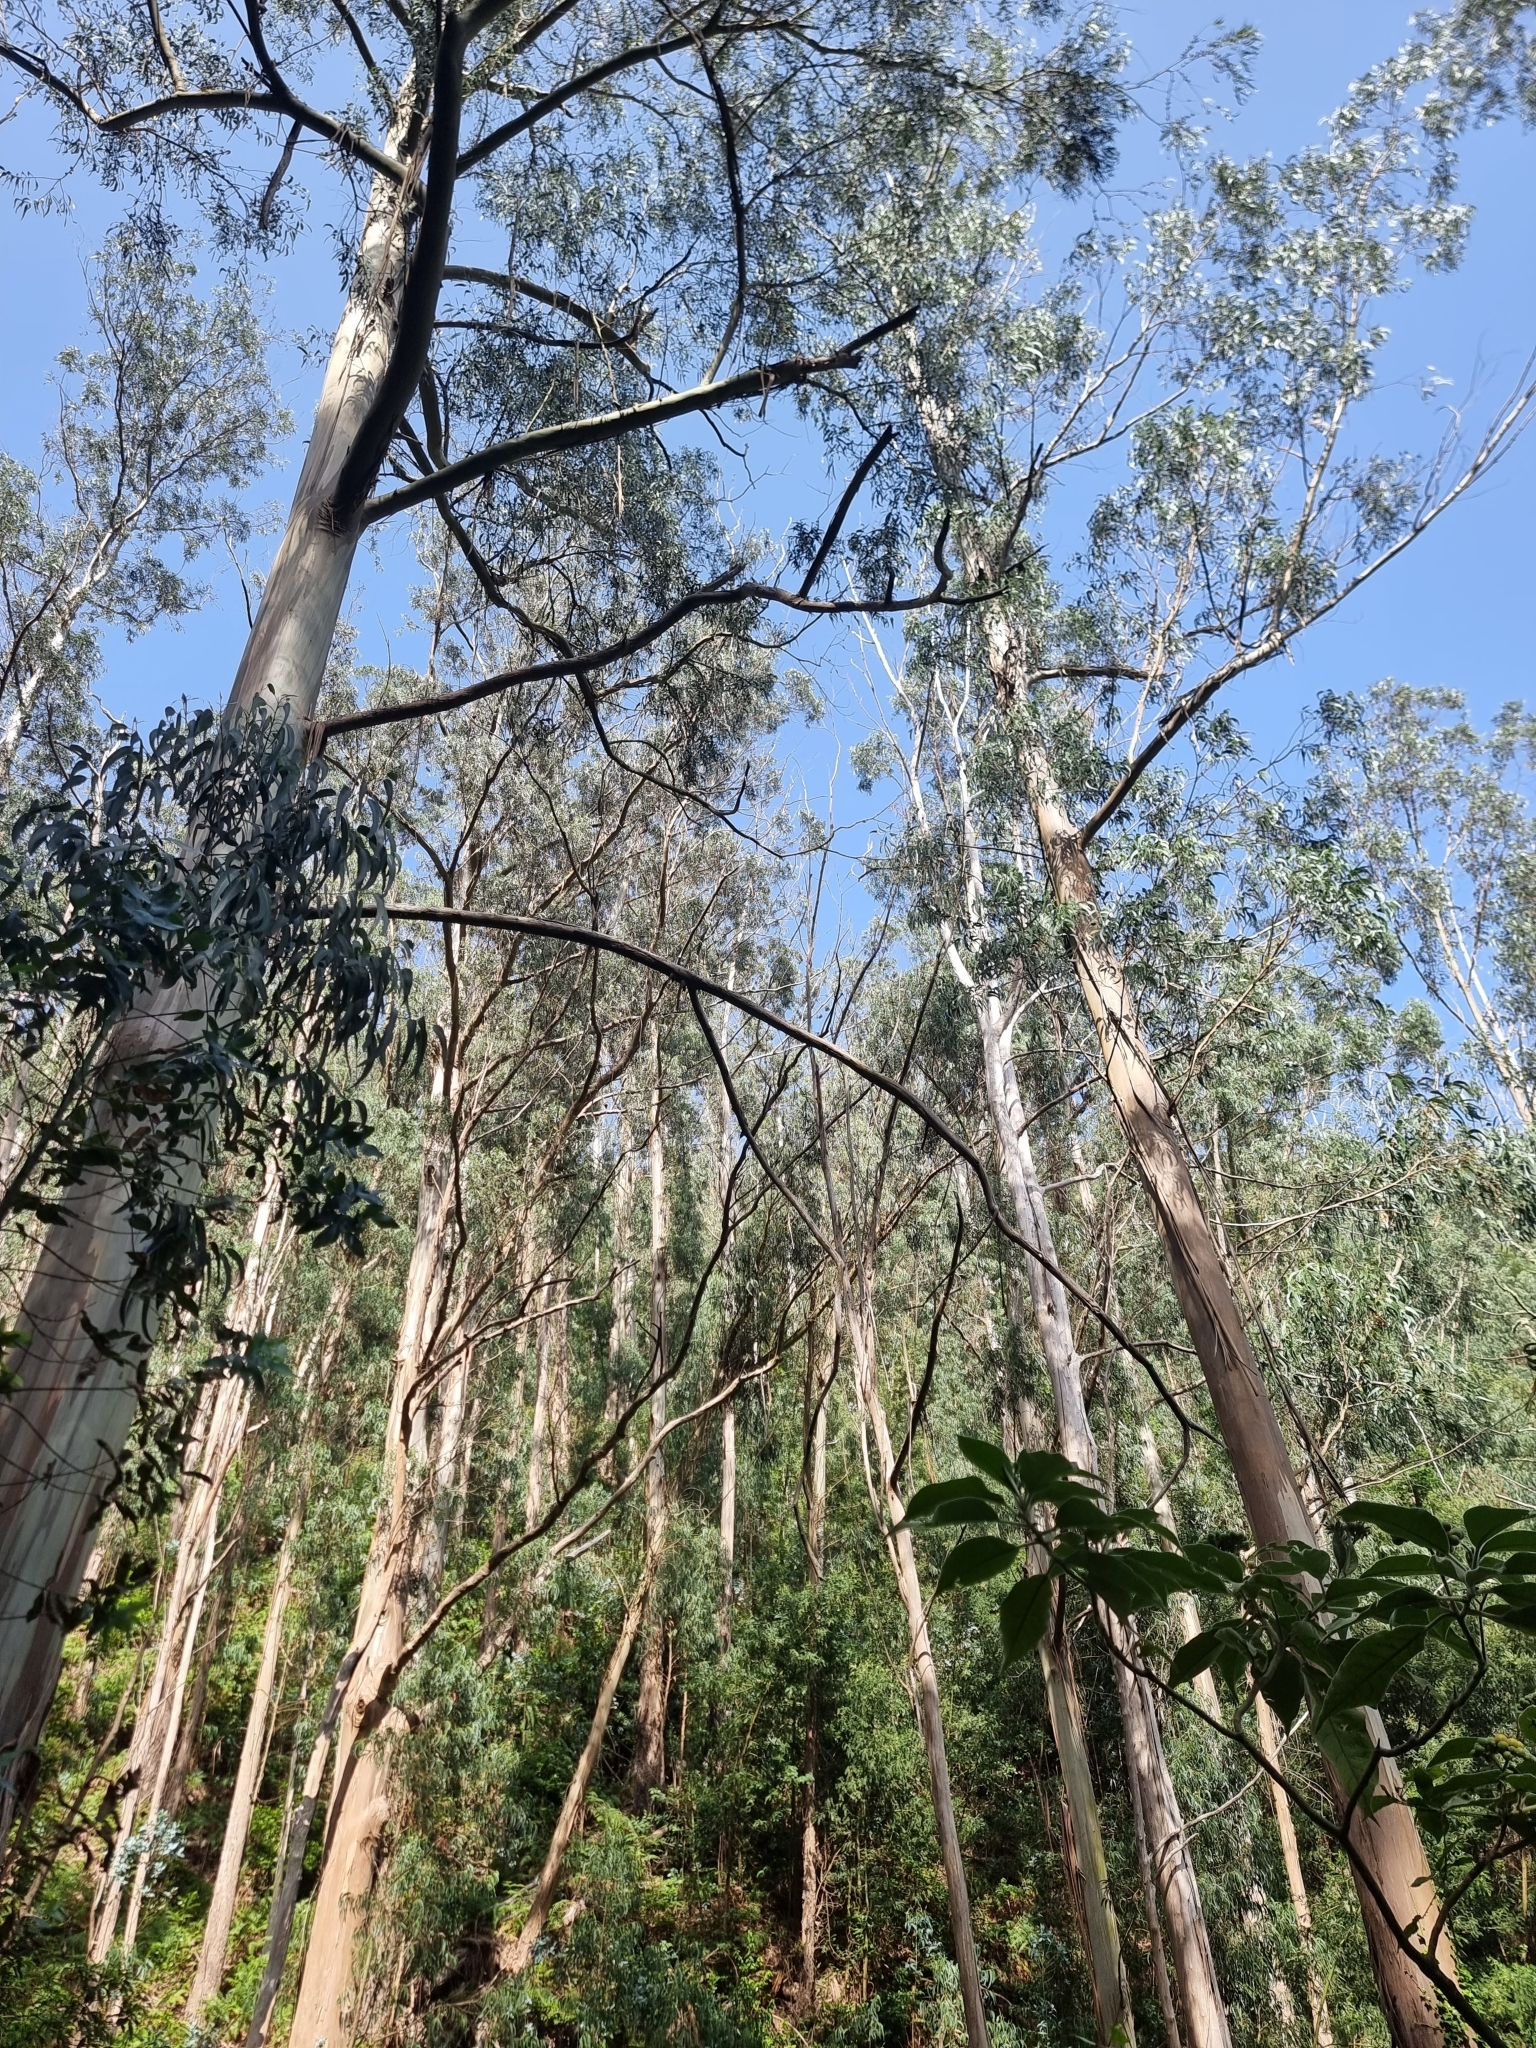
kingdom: Plantae
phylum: Tracheophyta
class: Magnoliopsida
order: Myrtales
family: Myrtaceae
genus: Eucalyptus
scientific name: Eucalyptus globulus
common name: Southern blue-gum
